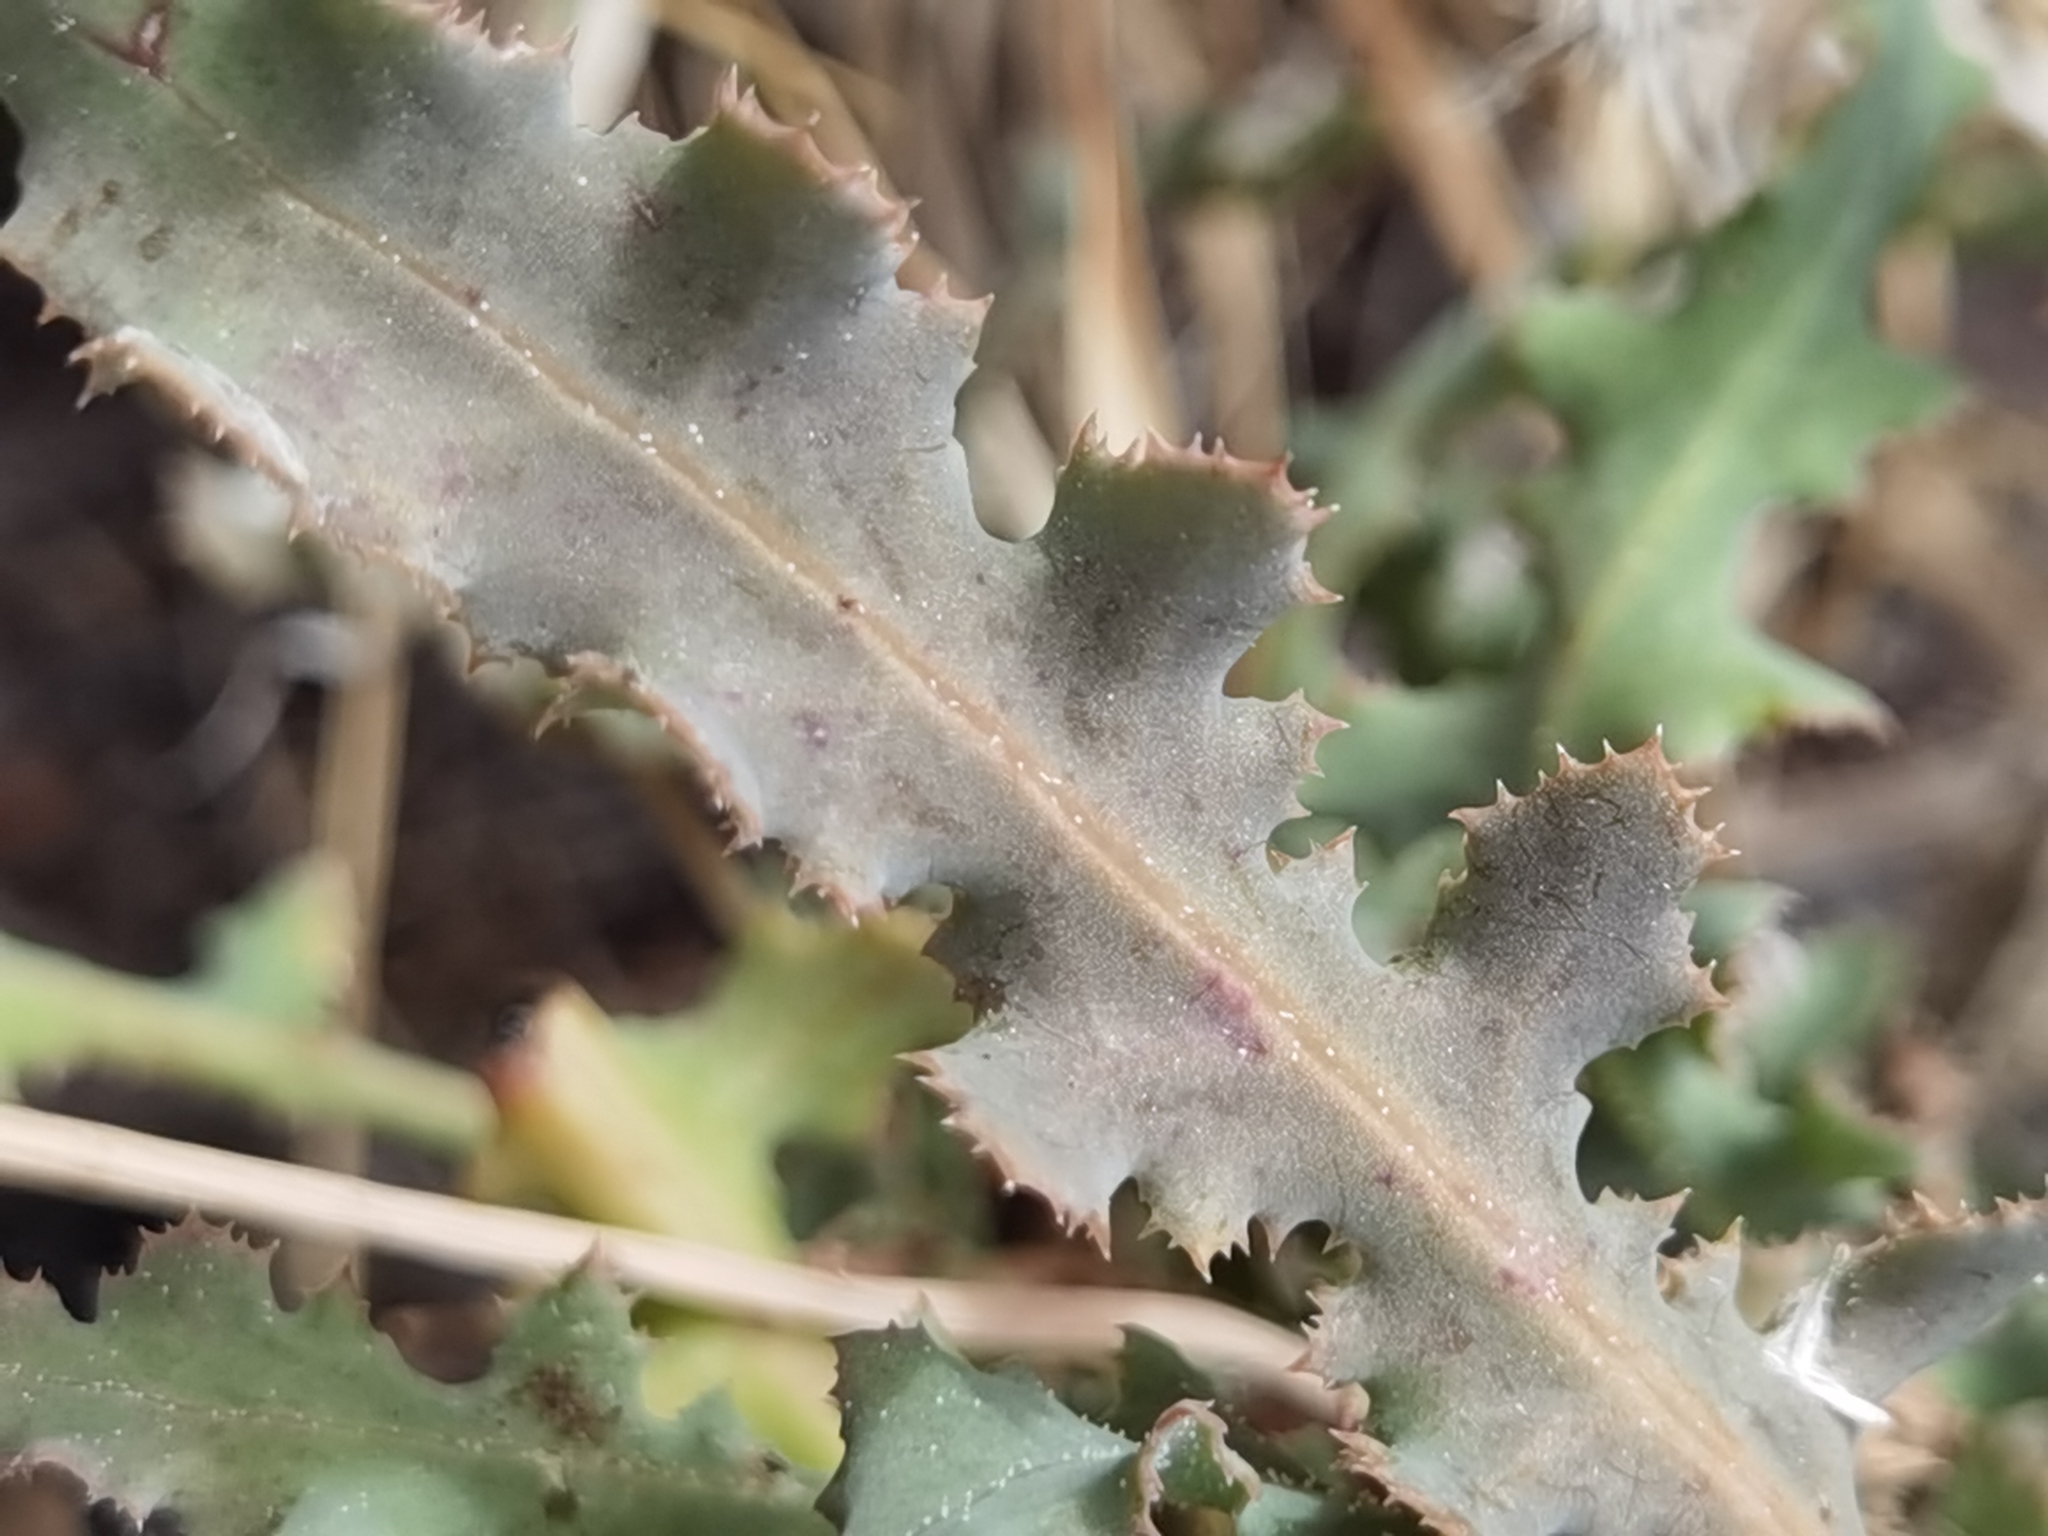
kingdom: Plantae
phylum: Tracheophyta
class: Magnoliopsida
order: Asterales
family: Asteraceae
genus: Reichardia
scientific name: Reichardia ligulata
